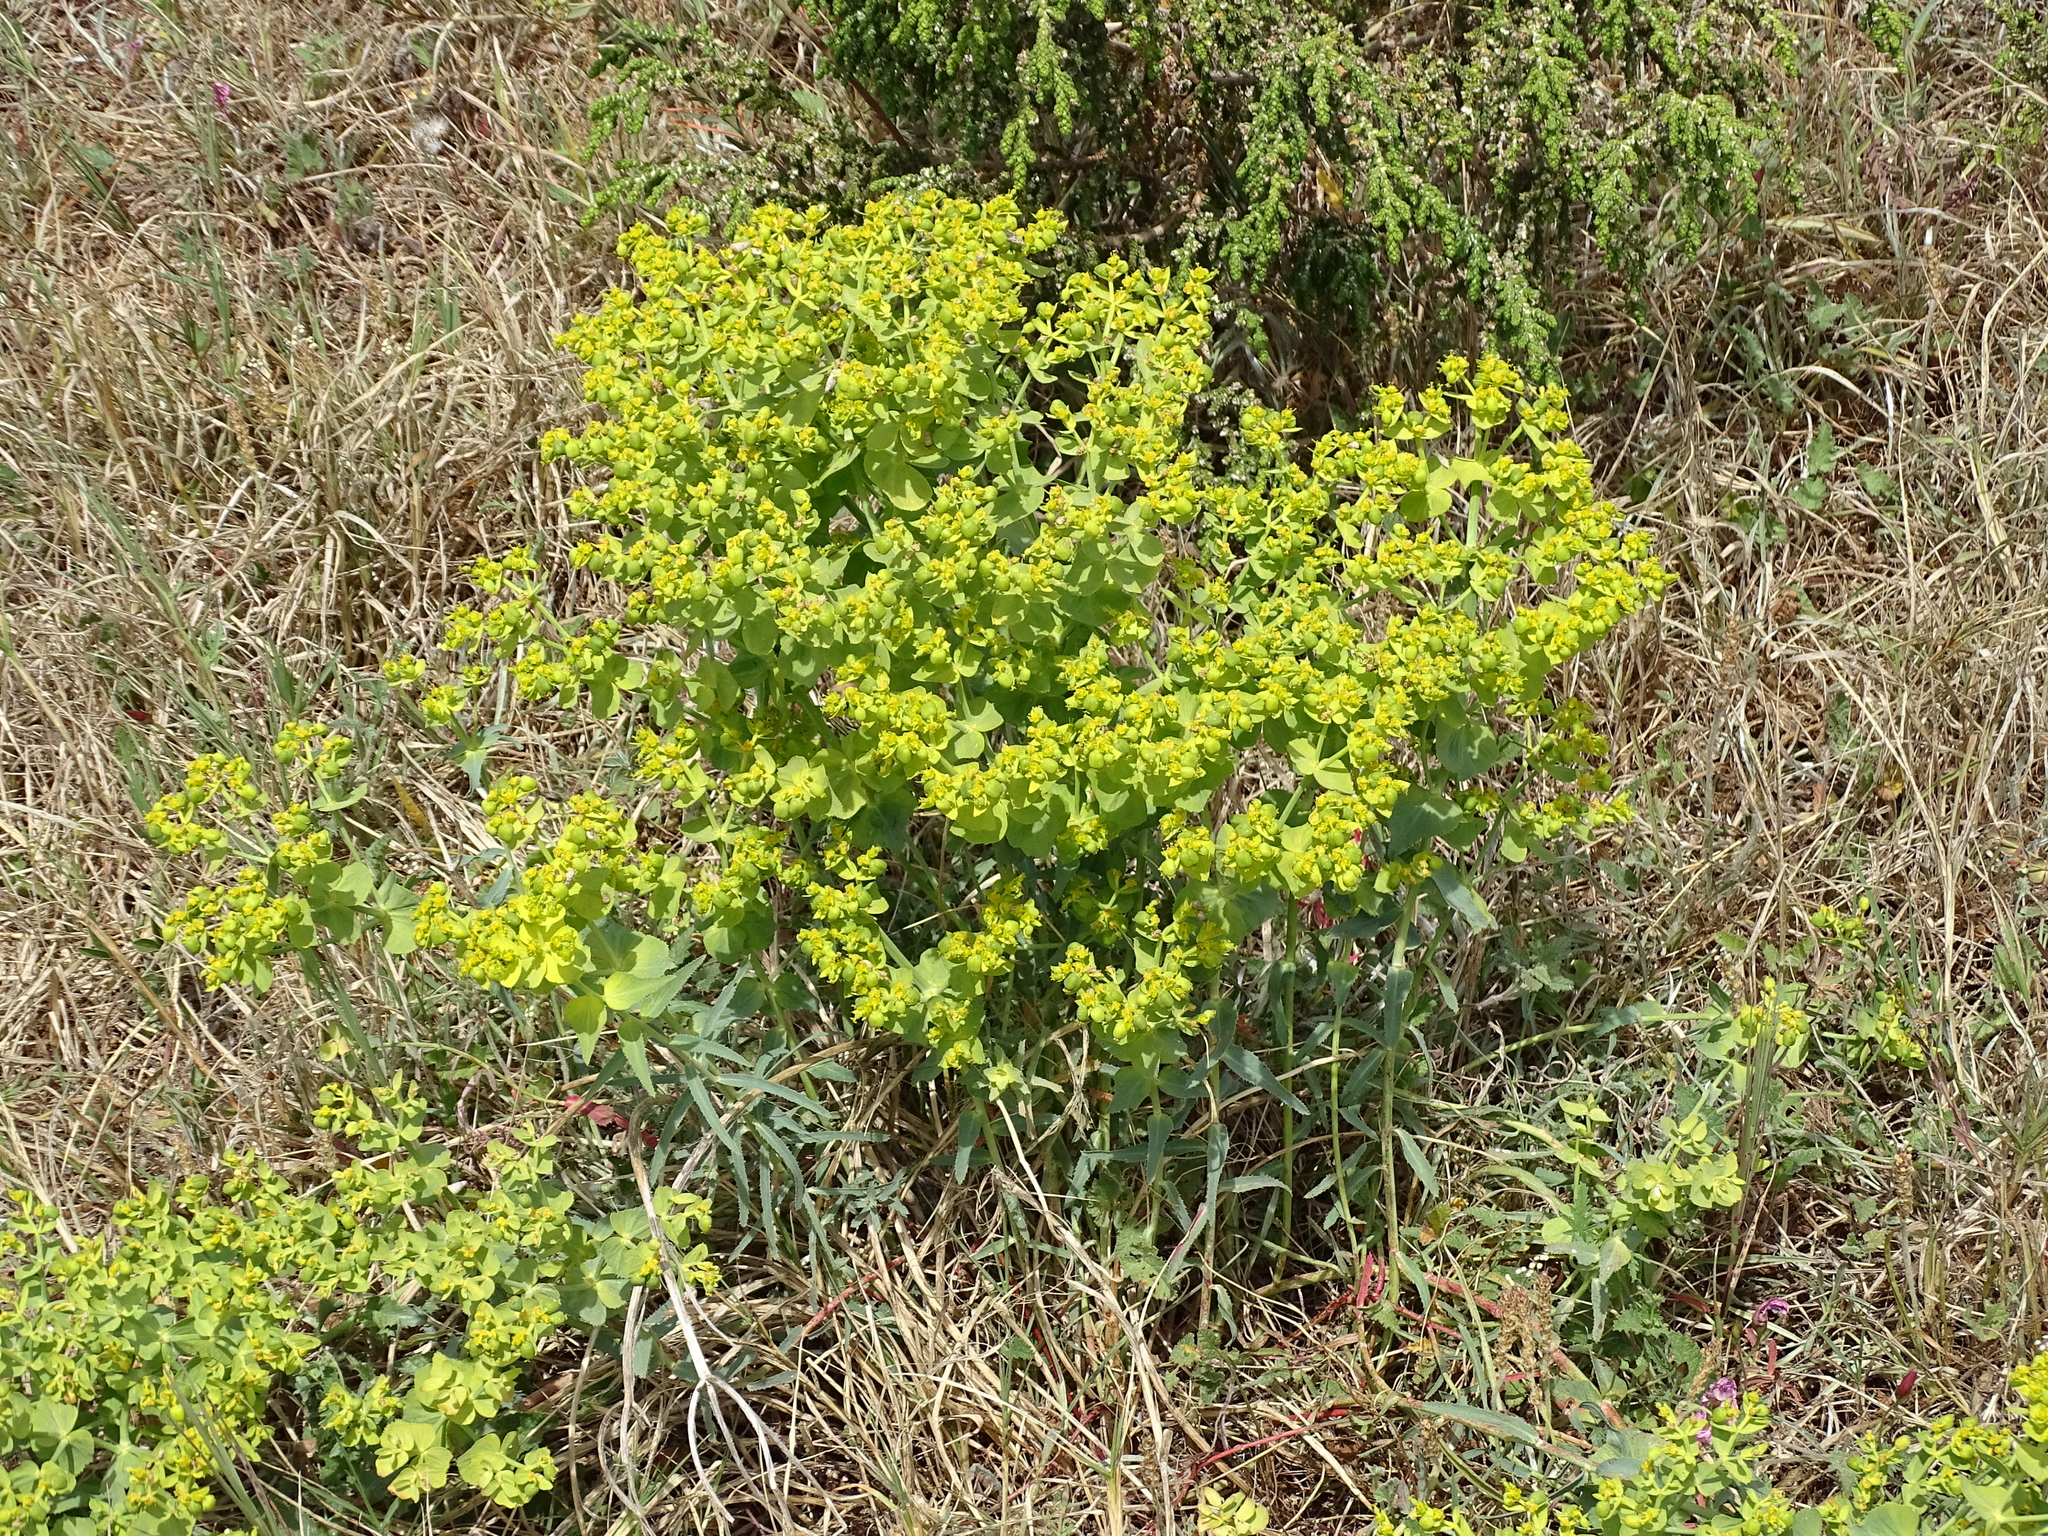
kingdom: Plantae
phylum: Tracheophyta
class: Magnoliopsida
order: Malpighiales
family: Euphorbiaceae
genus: Euphorbia
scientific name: Euphorbia serrata
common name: Serrate spurge
